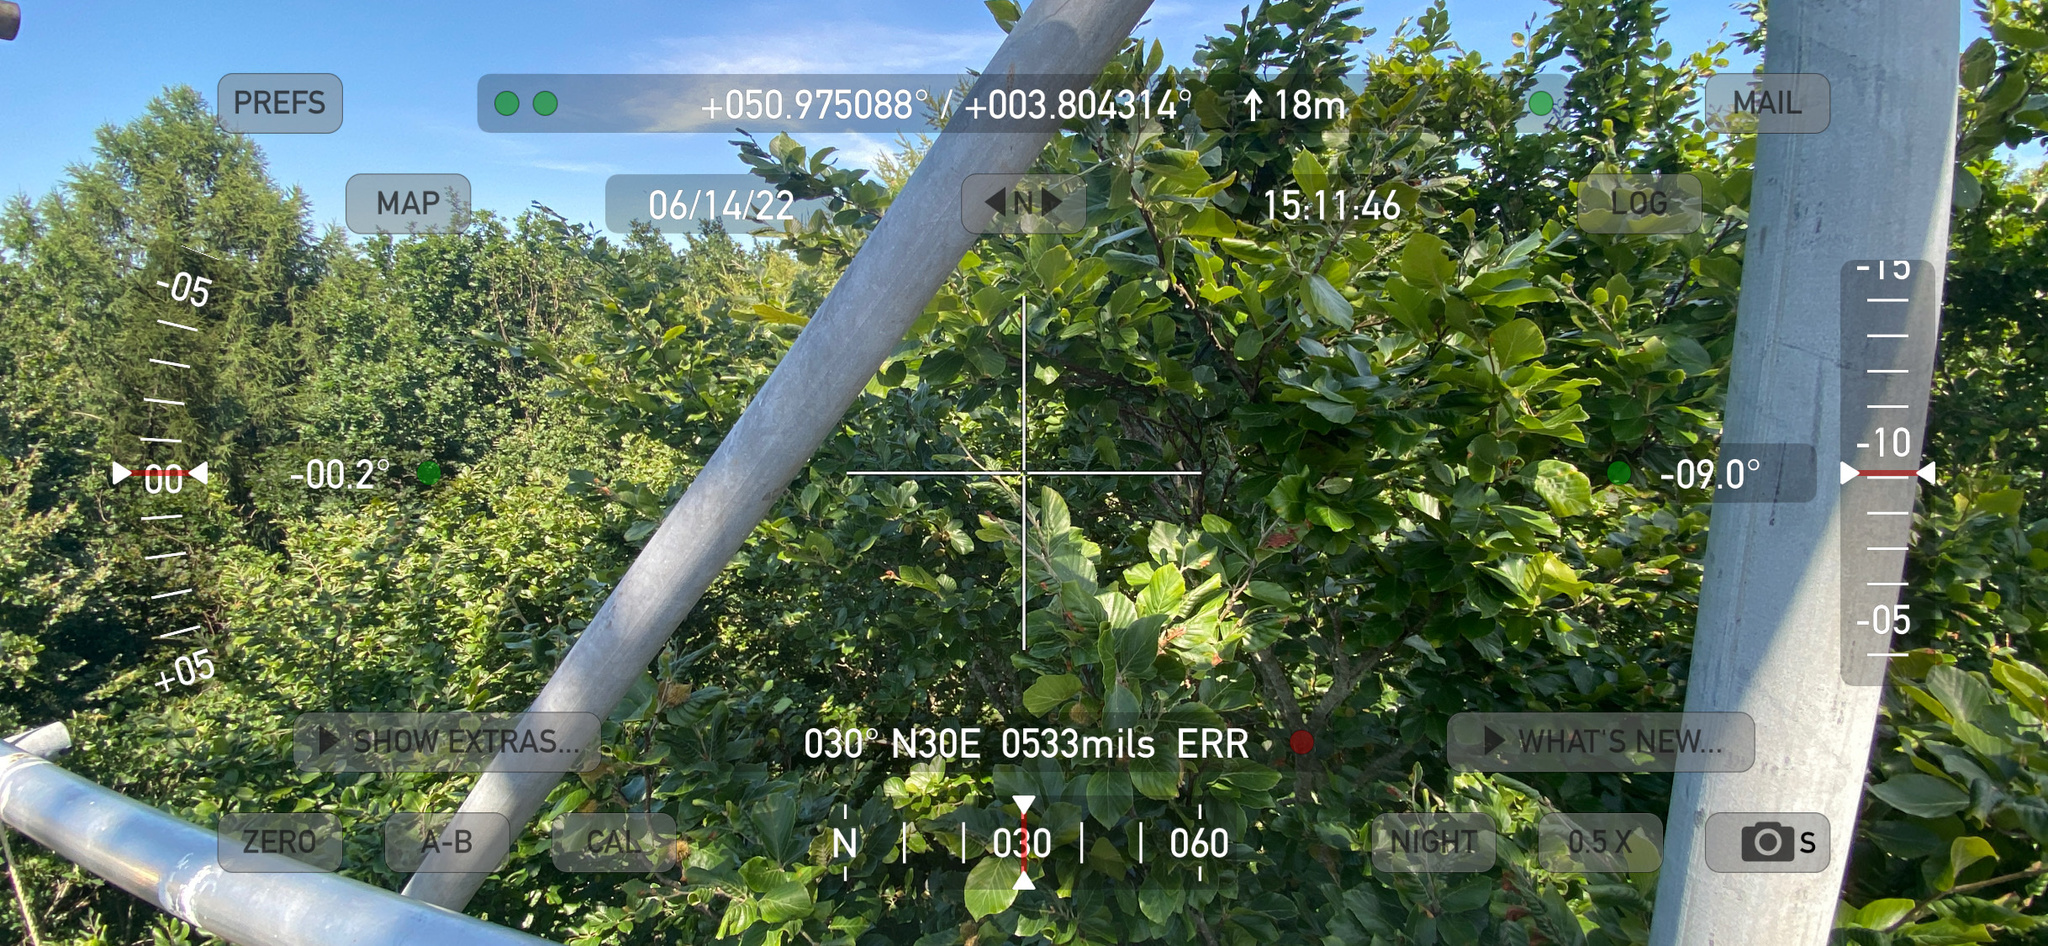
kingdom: Plantae
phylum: Tracheophyta
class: Magnoliopsida
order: Fagales
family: Fagaceae
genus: Fagus
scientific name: Fagus sylvatica
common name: Beech
